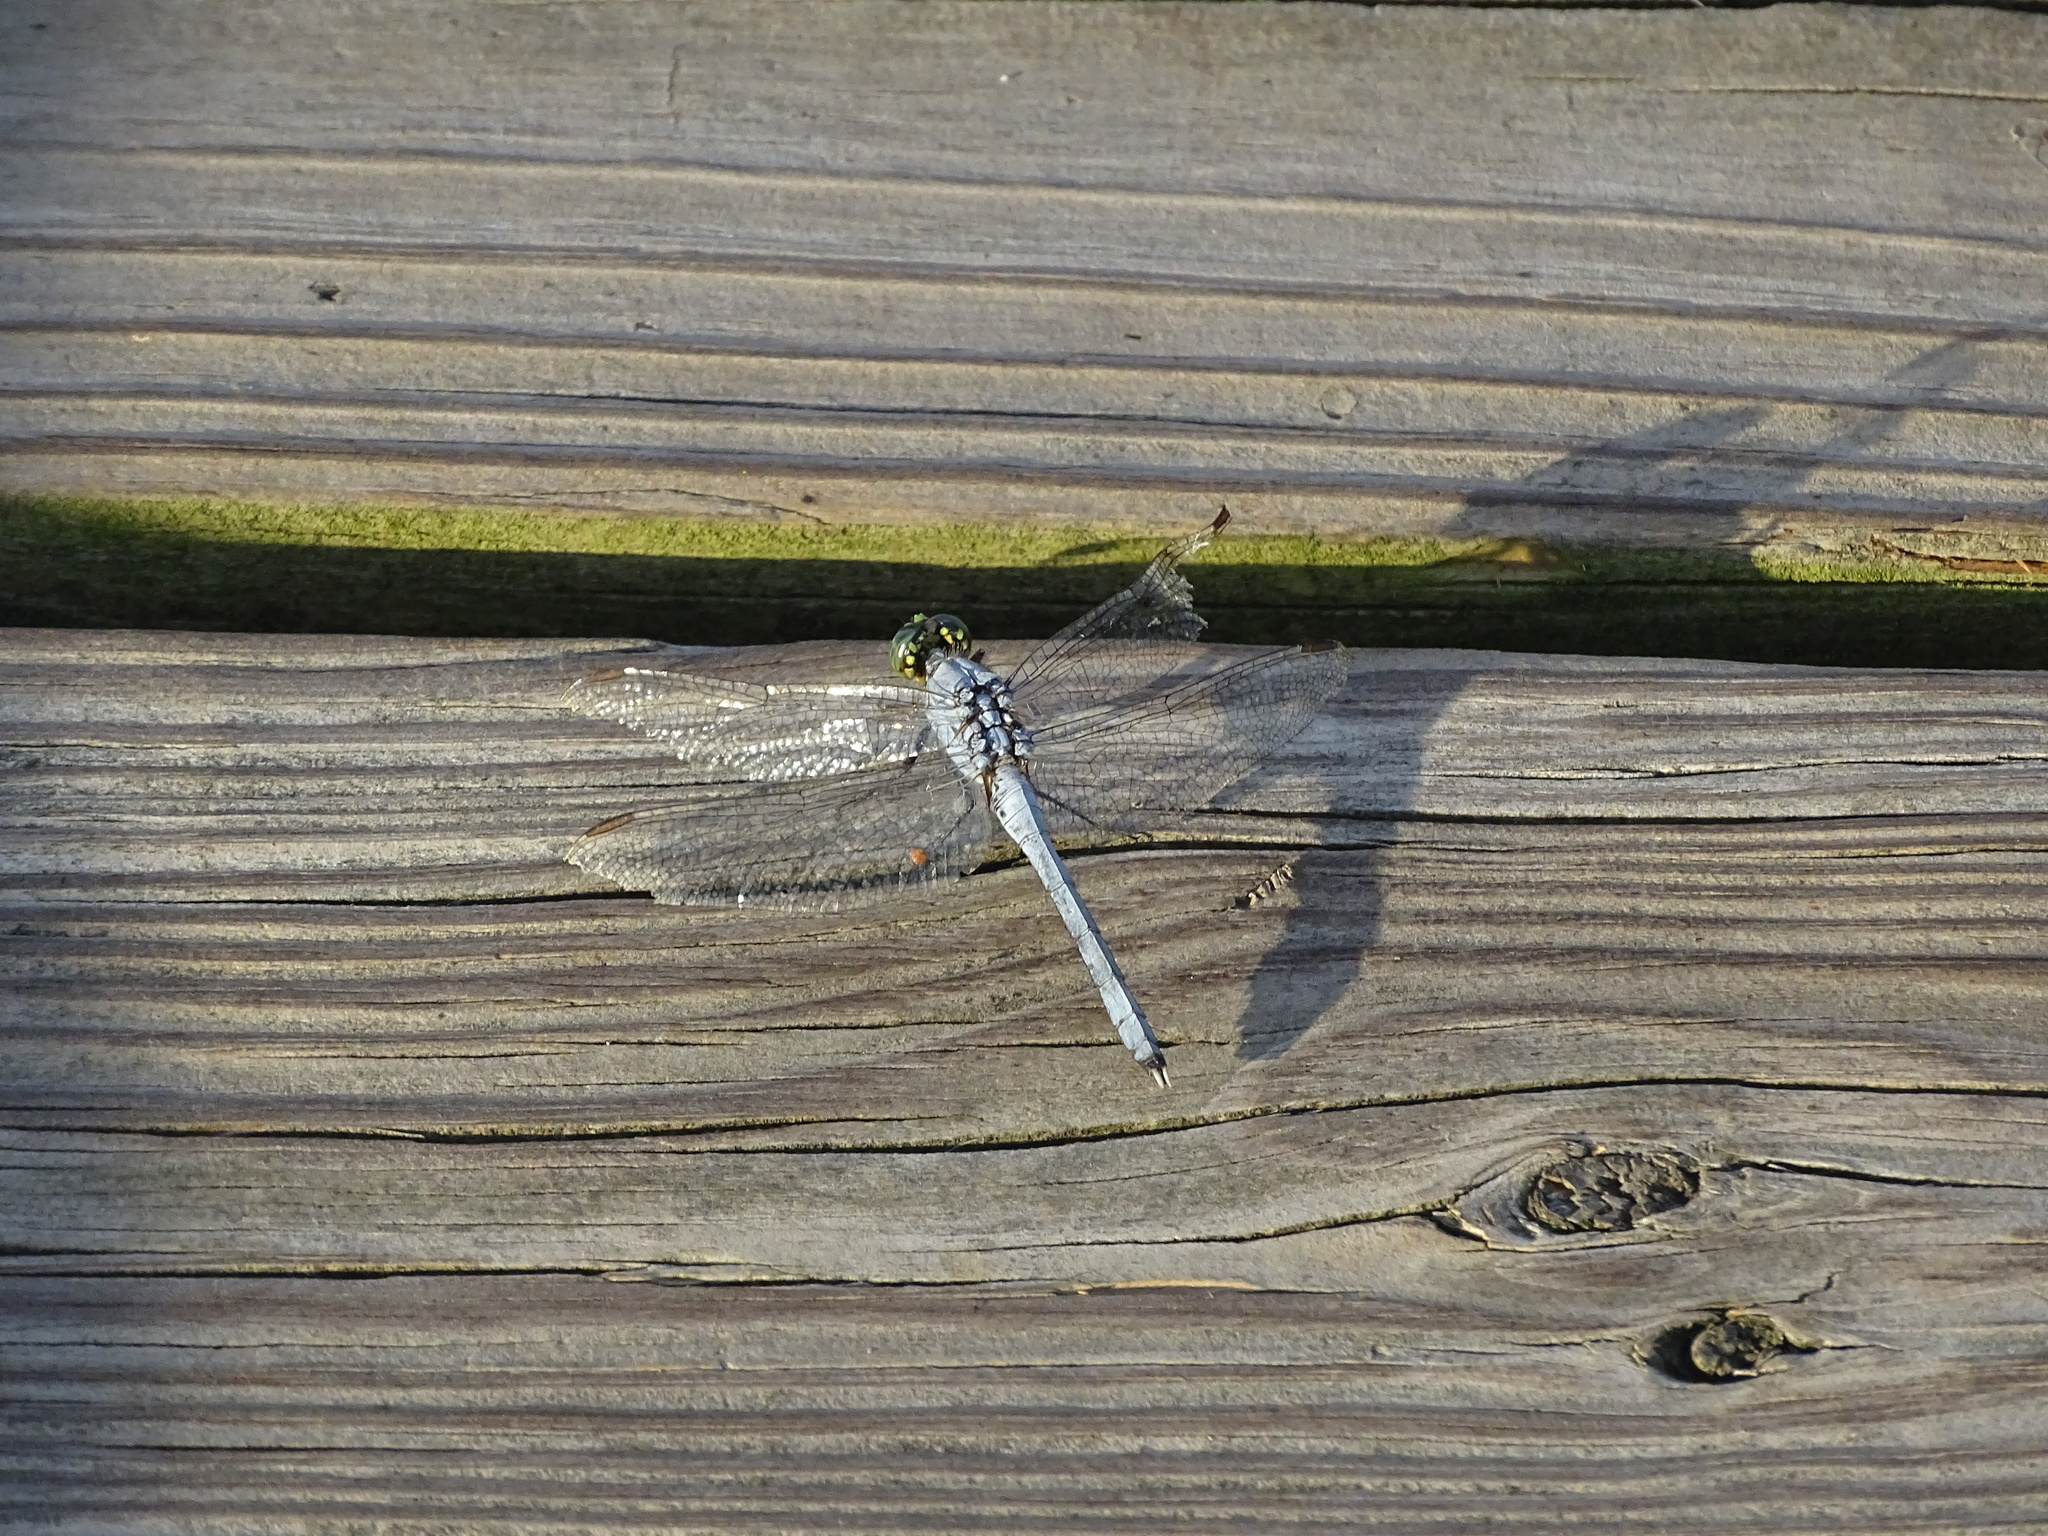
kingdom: Animalia
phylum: Arthropoda
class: Insecta
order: Odonata
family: Libellulidae
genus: Erythemis
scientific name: Erythemis simplicicollis
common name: Eastern pondhawk
